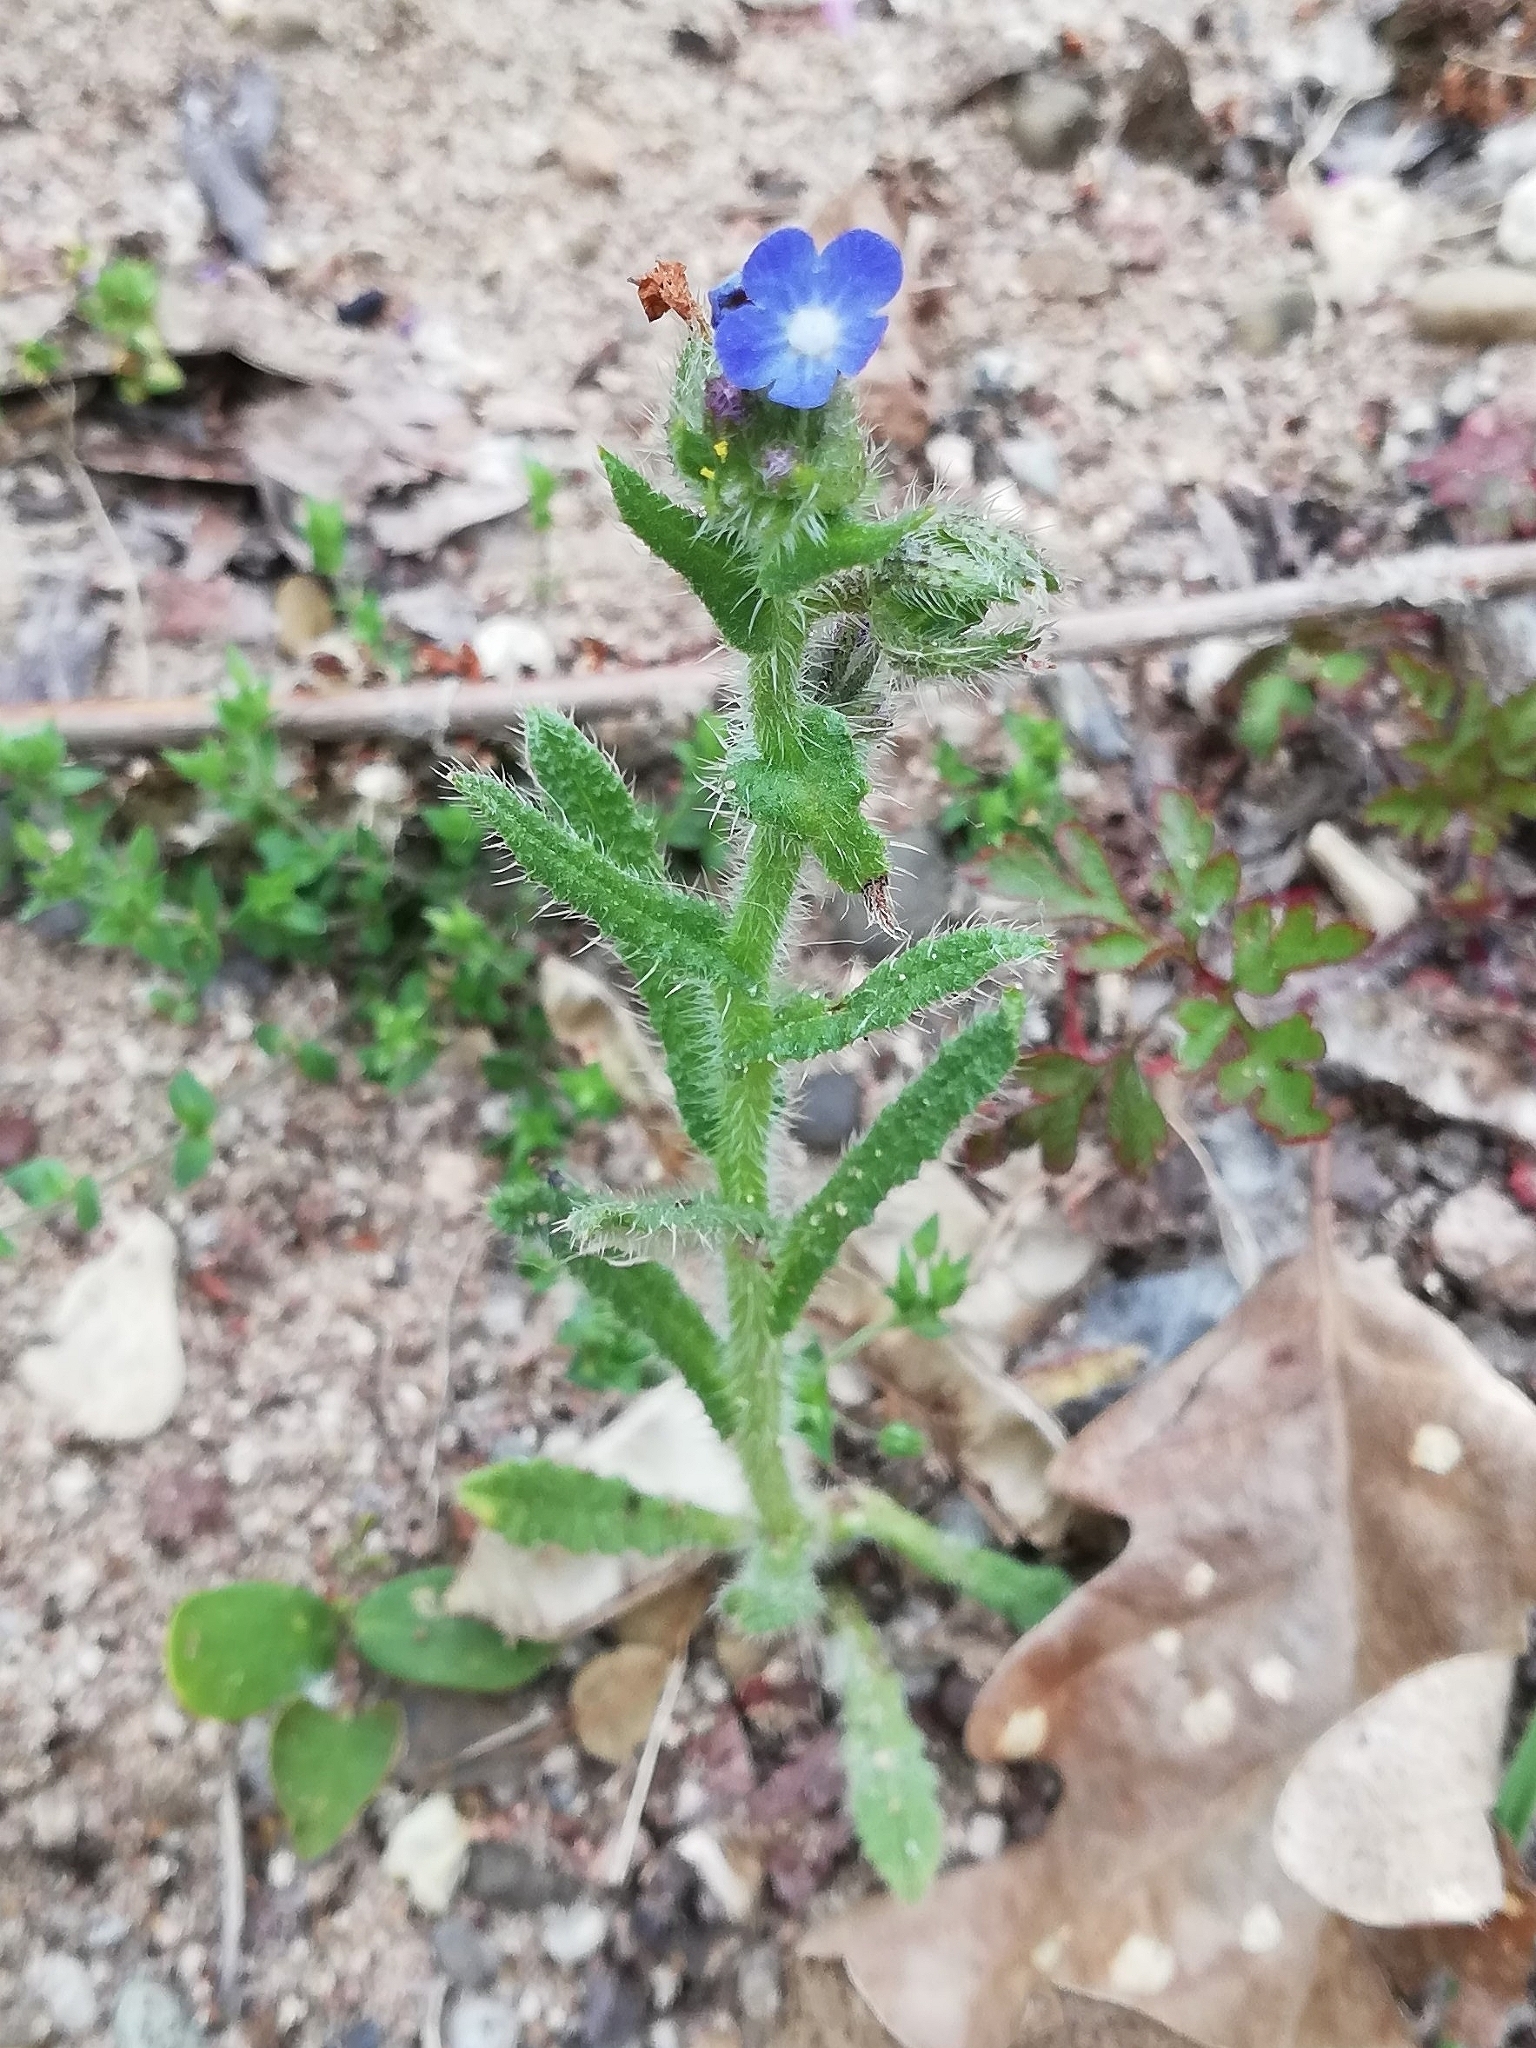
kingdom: Plantae
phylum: Tracheophyta
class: Magnoliopsida
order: Boraginales
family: Boraginaceae
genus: Lycopsis
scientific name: Lycopsis arvensis
